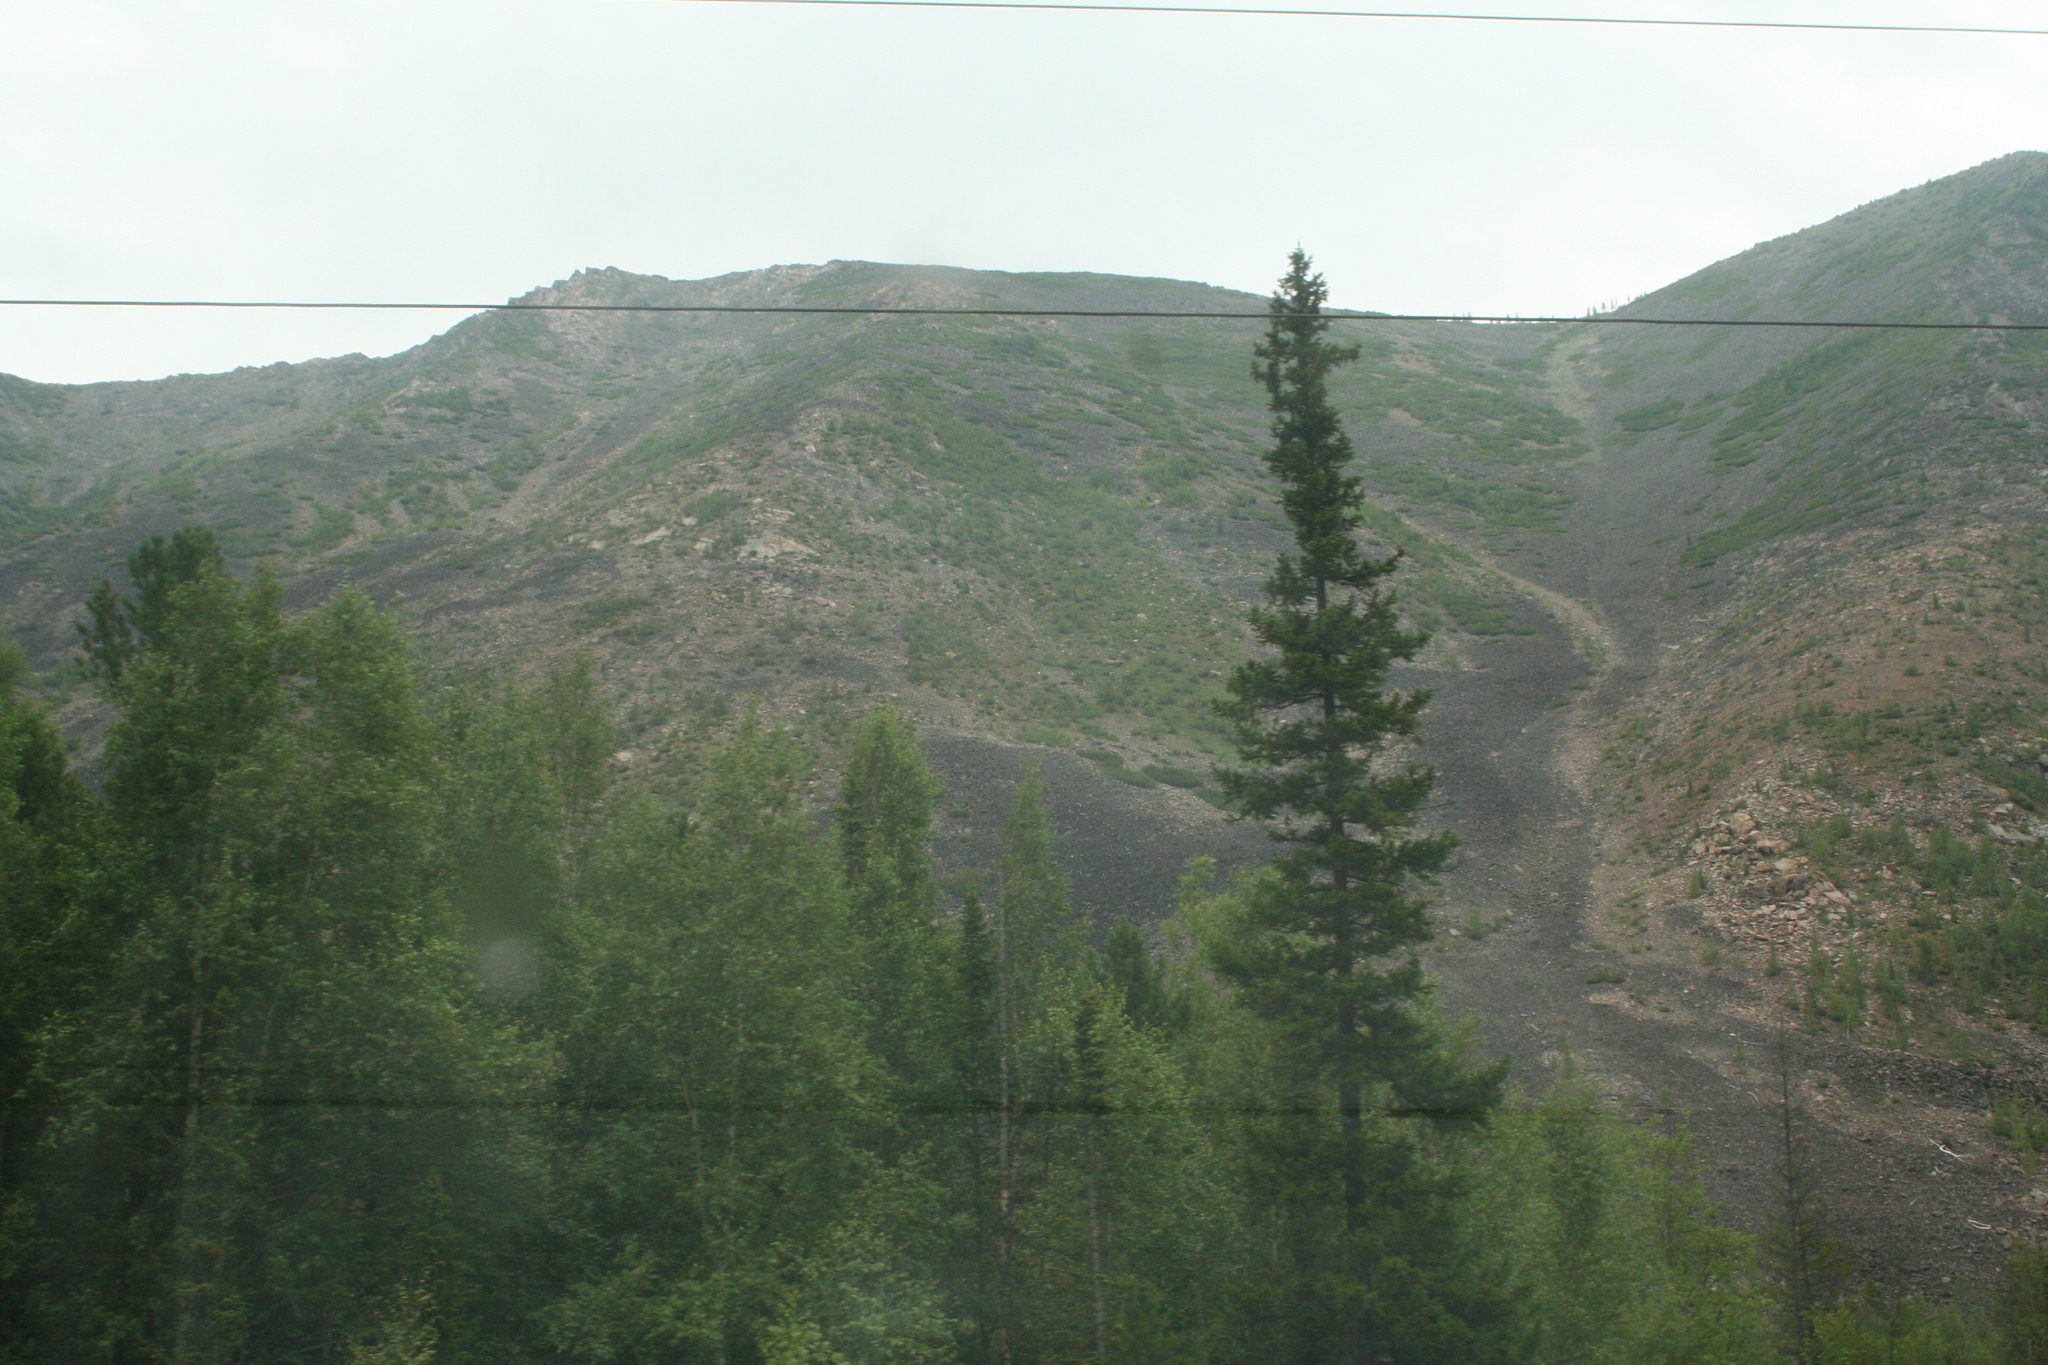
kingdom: Plantae
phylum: Tracheophyta
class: Pinopsida
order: Pinales
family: Pinaceae
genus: Picea
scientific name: Picea obovata
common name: Siberian spruce
